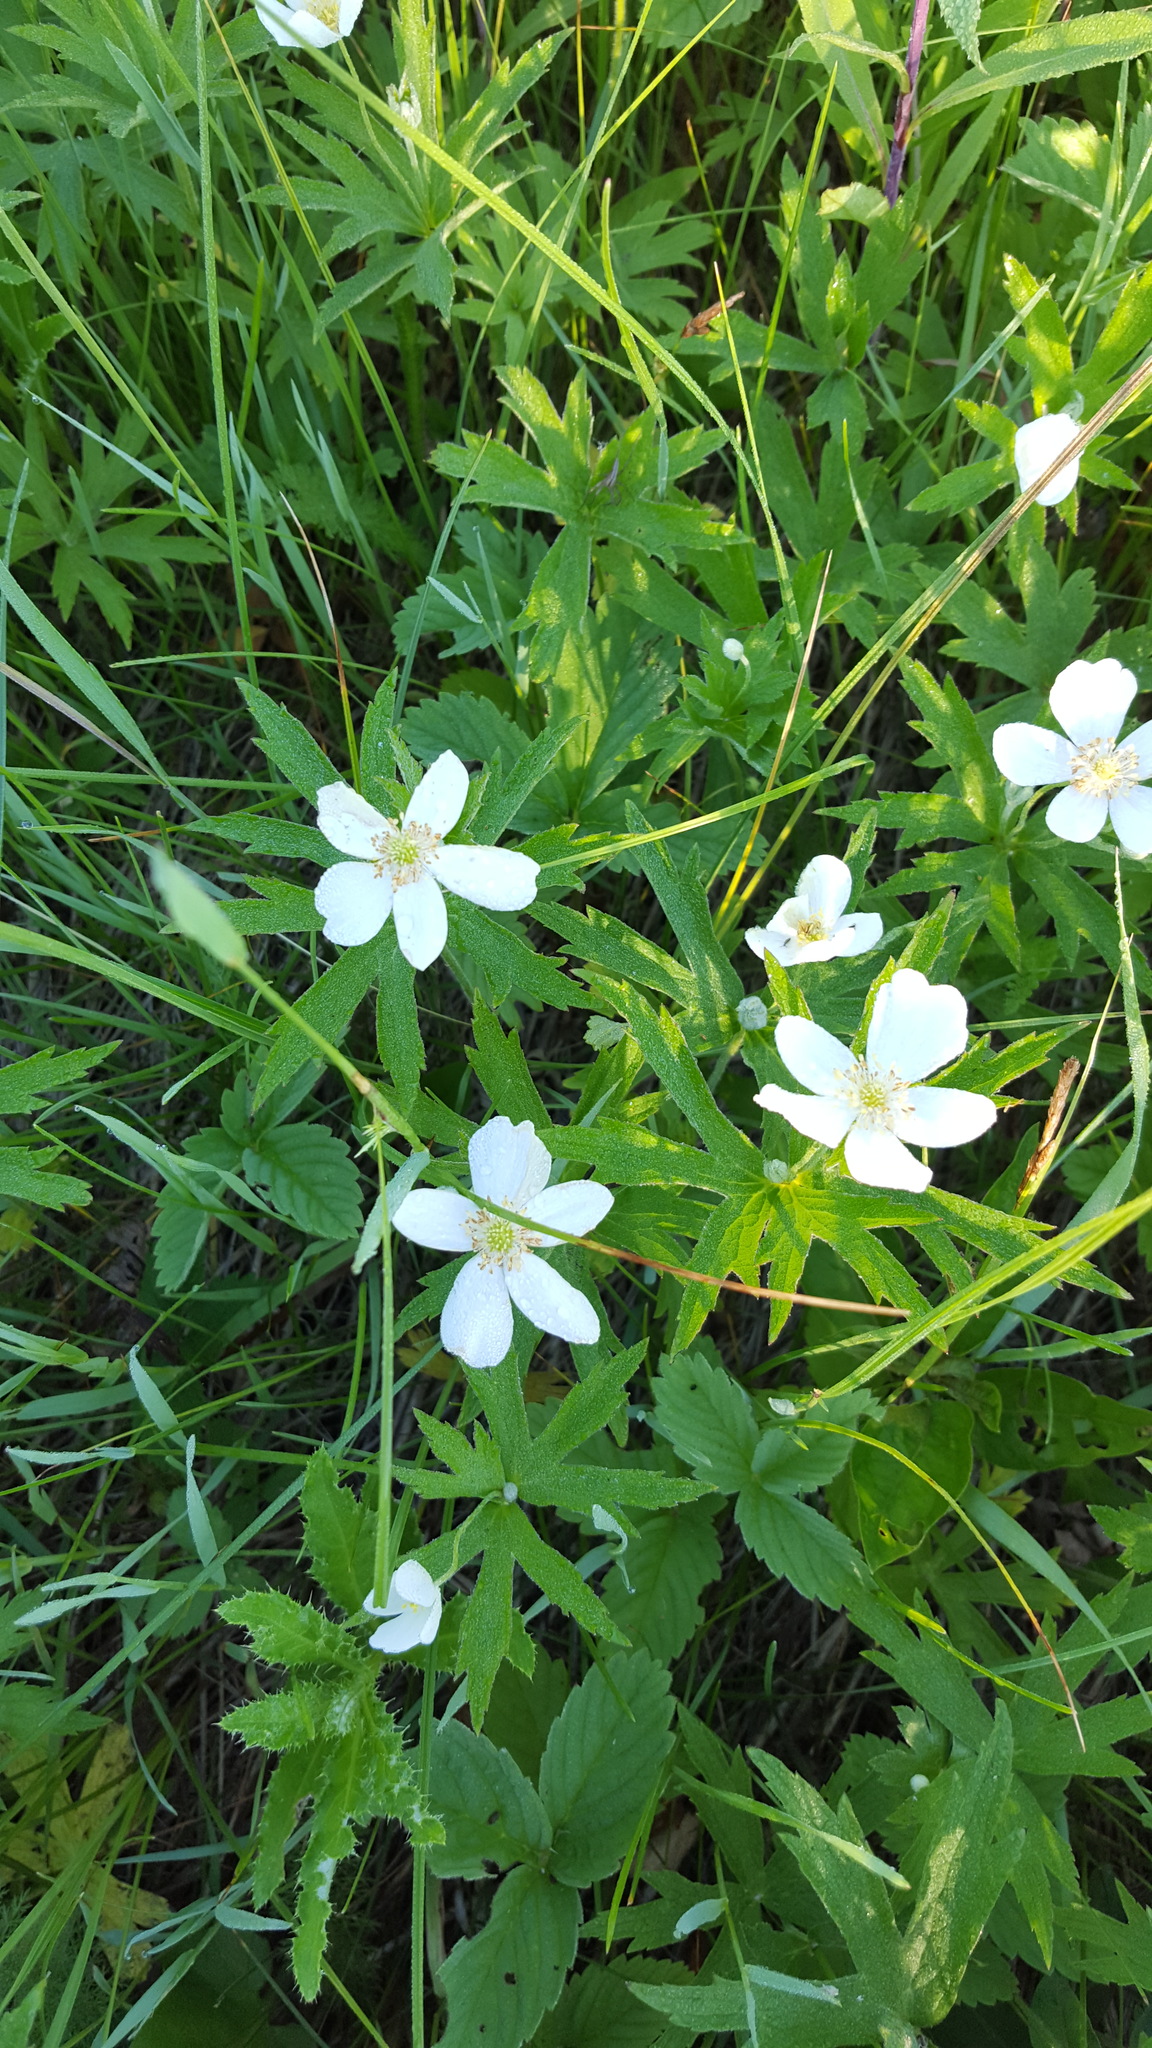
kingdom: Plantae
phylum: Tracheophyta
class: Magnoliopsida
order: Ranunculales
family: Ranunculaceae
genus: Anemonastrum
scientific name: Anemonastrum canadense
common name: Canada anemone
